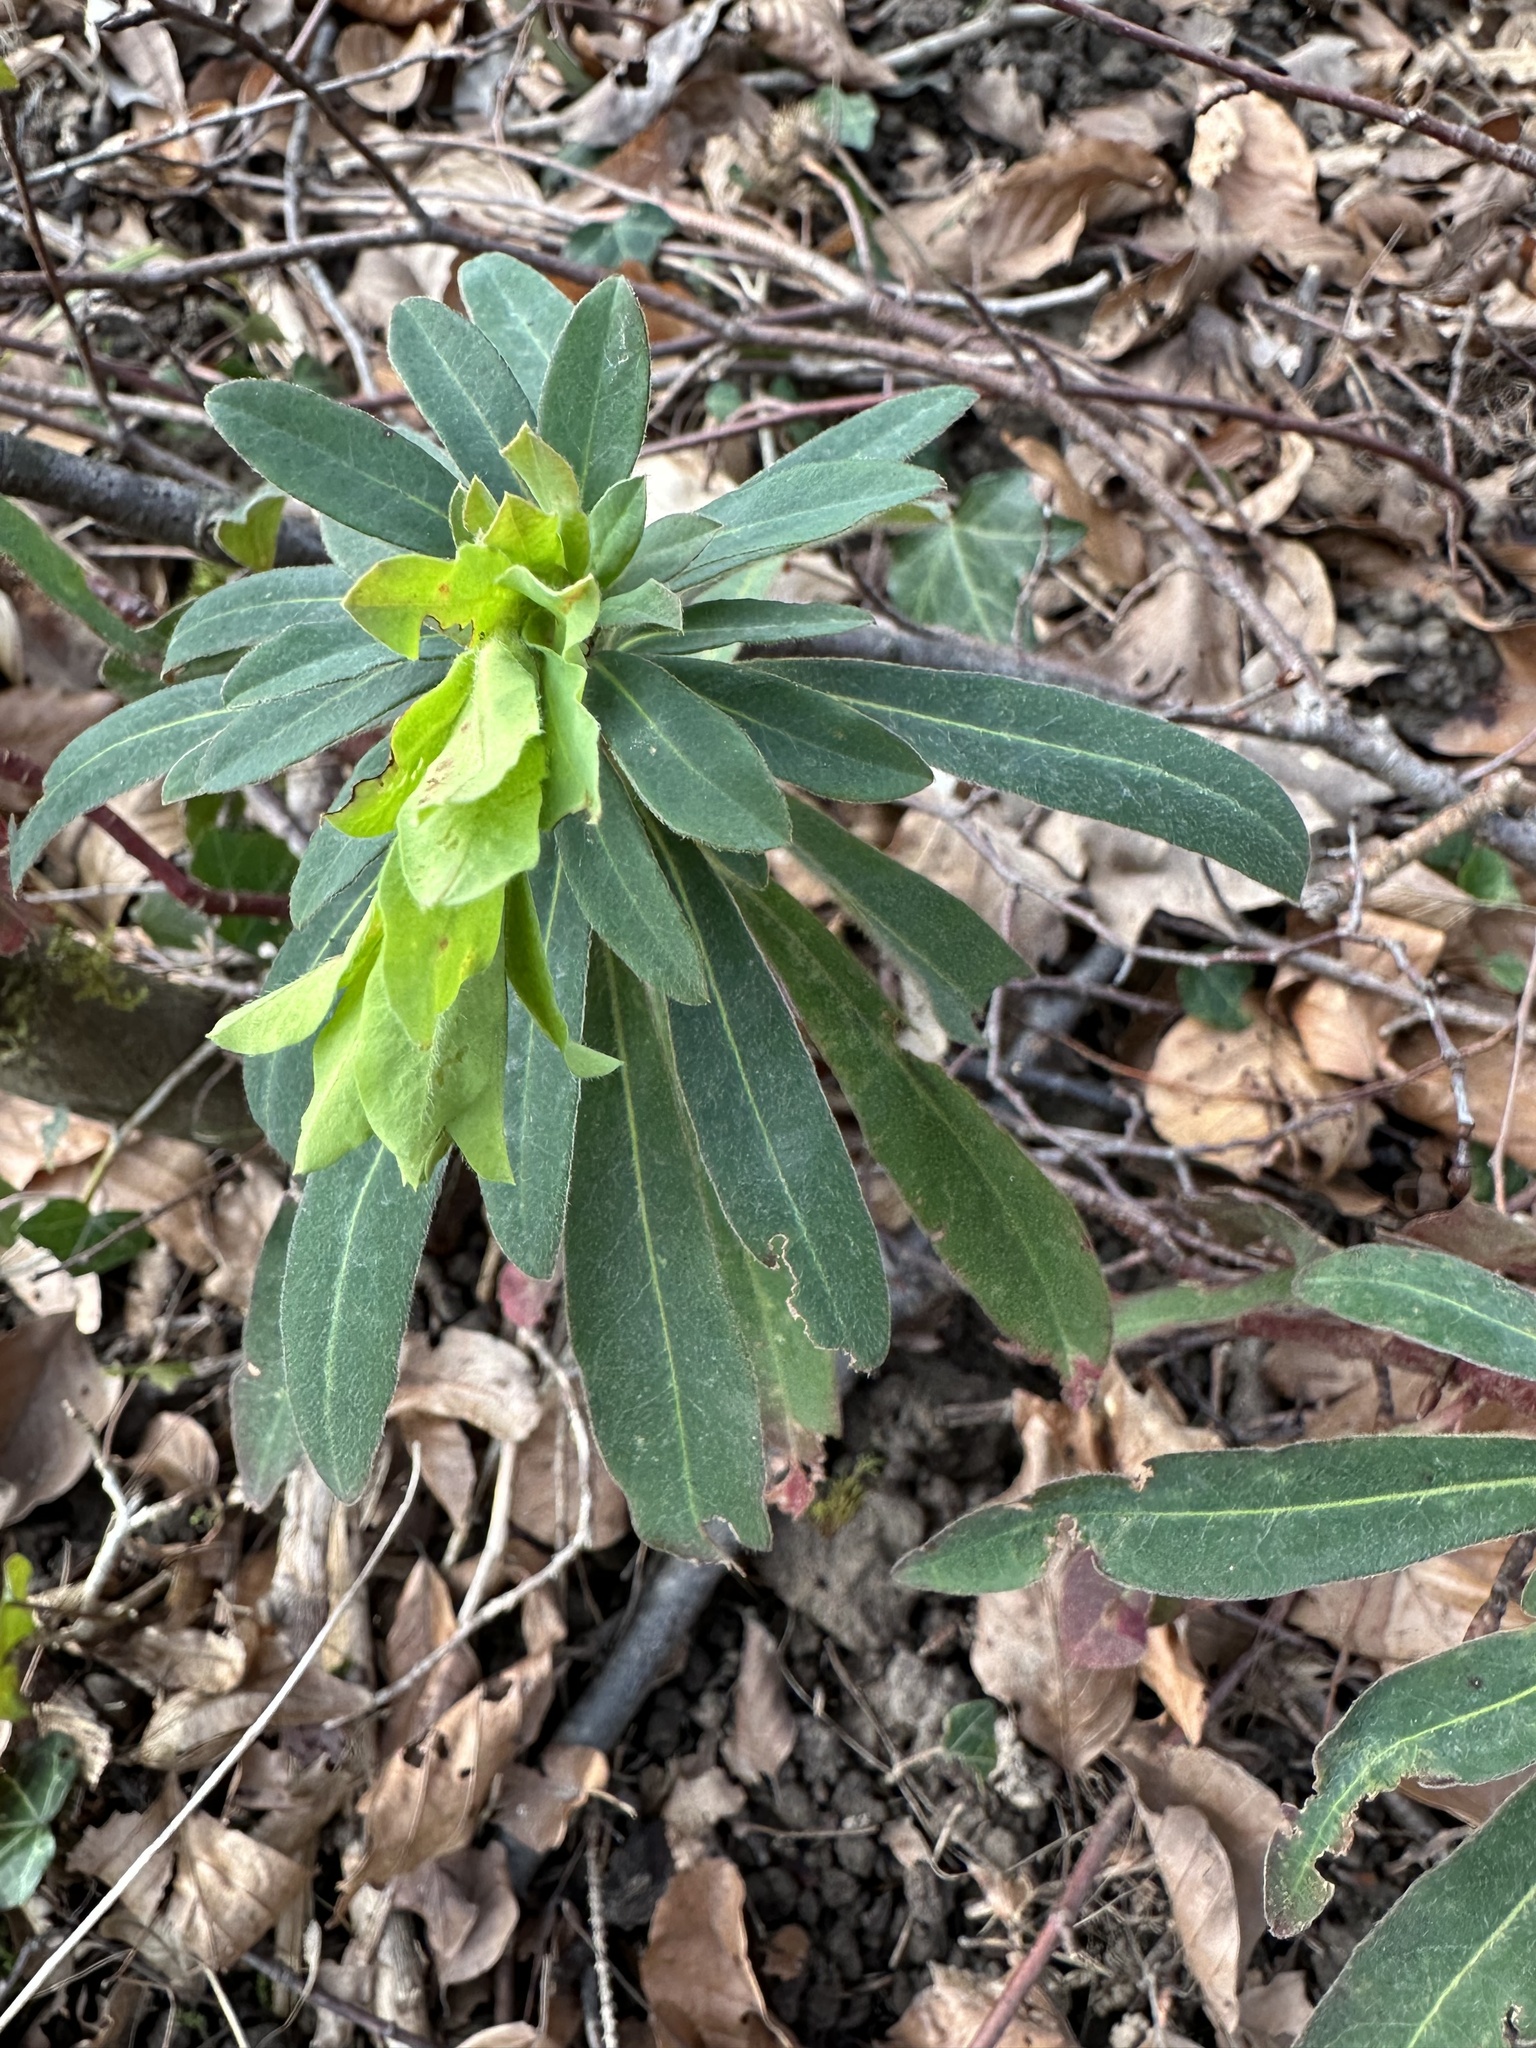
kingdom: Plantae
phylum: Tracheophyta
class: Magnoliopsida
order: Malpighiales
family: Euphorbiaceae
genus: Euphorbia
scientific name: Euphorbia amygdaloides
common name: Wood spurge
